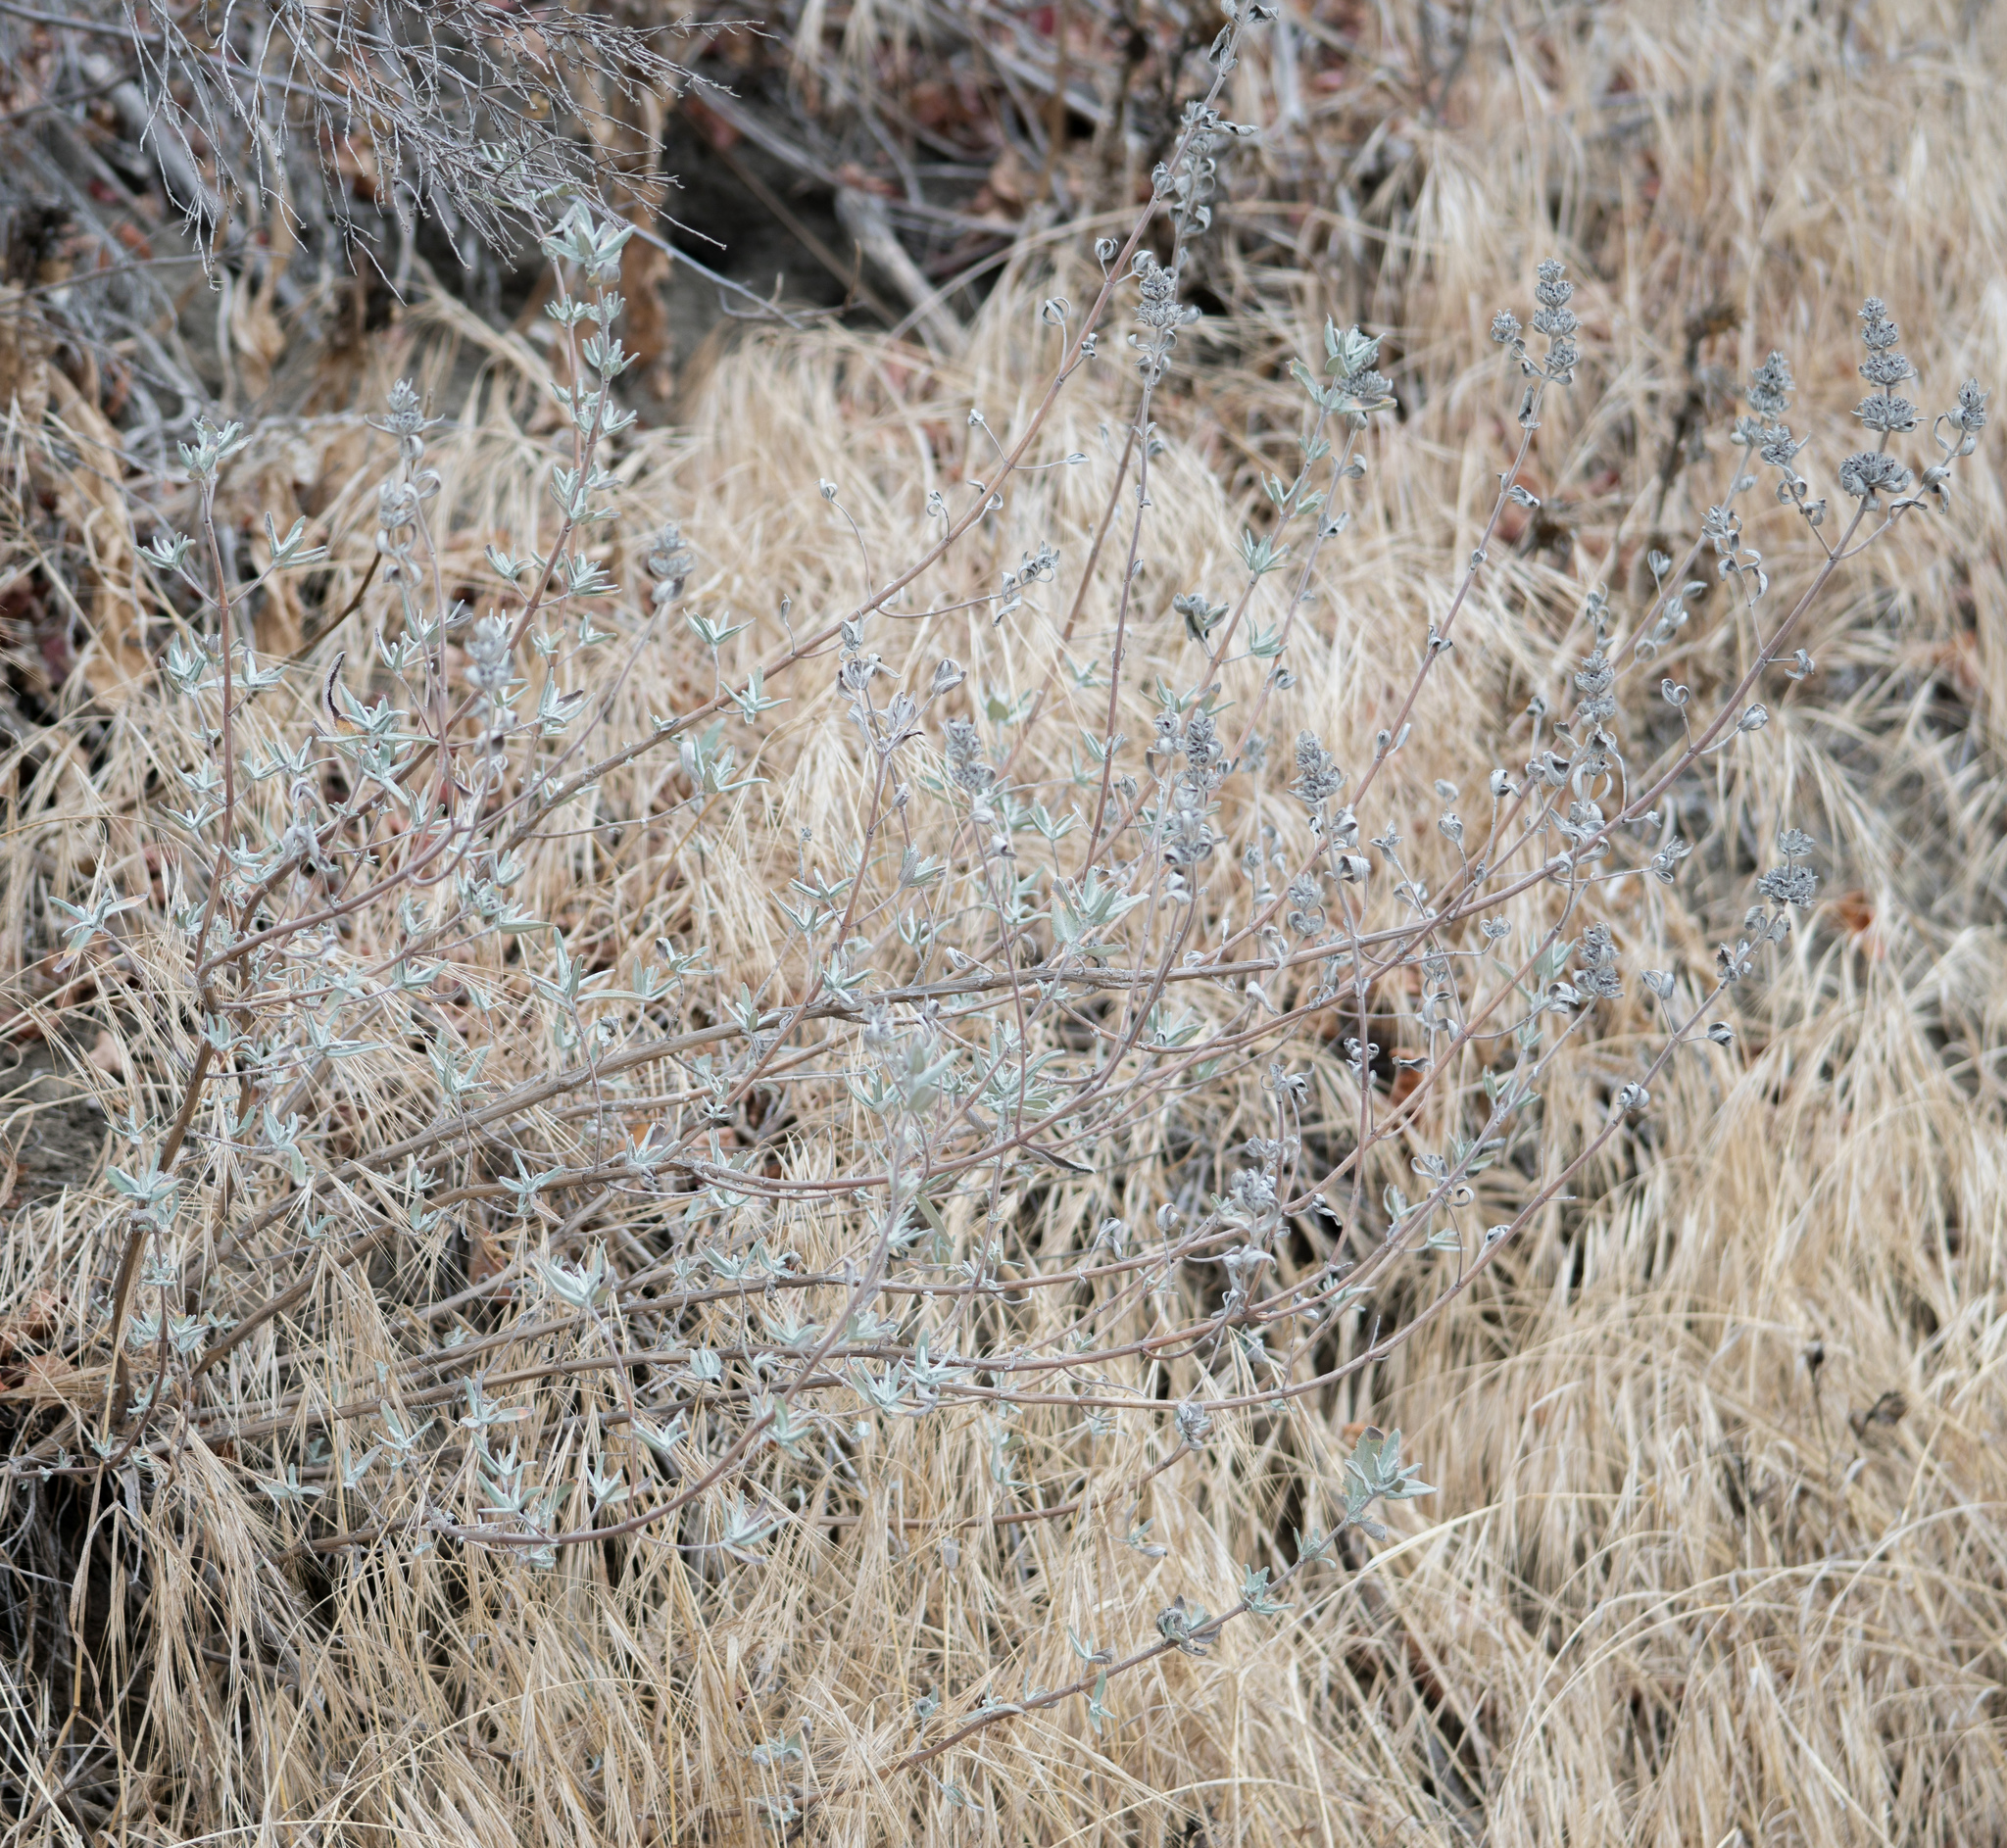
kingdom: Plantae
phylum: Tracheophyta
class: Magnoliopsida
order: Lamiales
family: Lamiaceae
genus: Salvia
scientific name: Salvia leucophylla
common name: Purple sage
